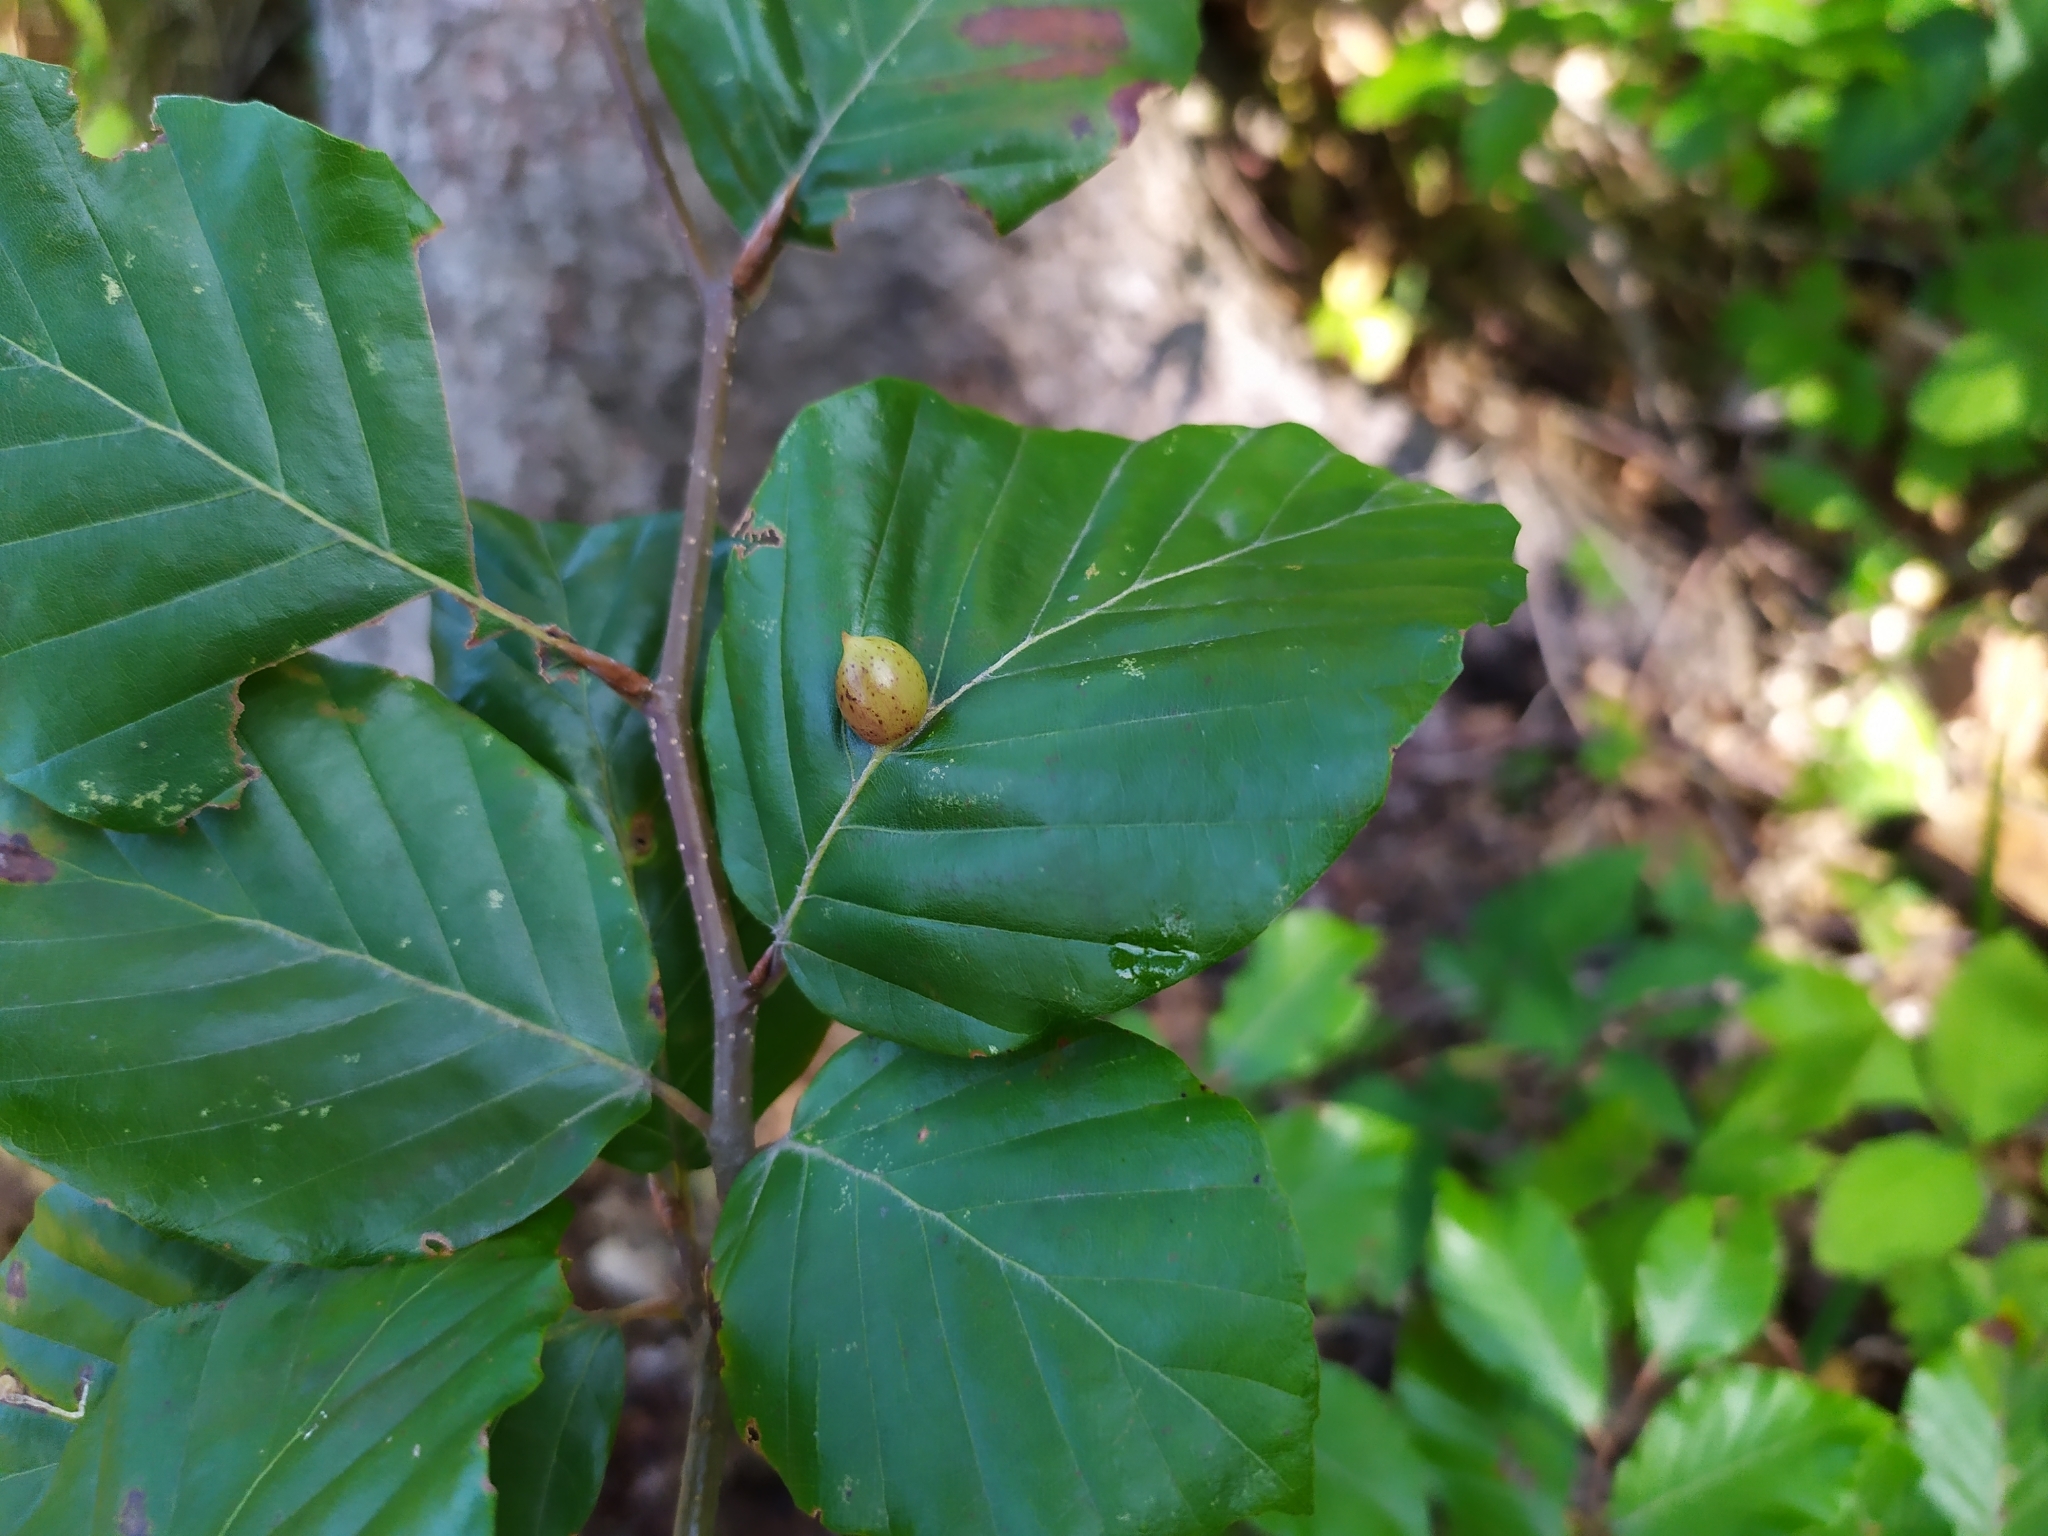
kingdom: Animalia
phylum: Arthropoda
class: Insecta
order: Diptera
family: Cecidomyiidae
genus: Mikiola
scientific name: Mikiola fagi
